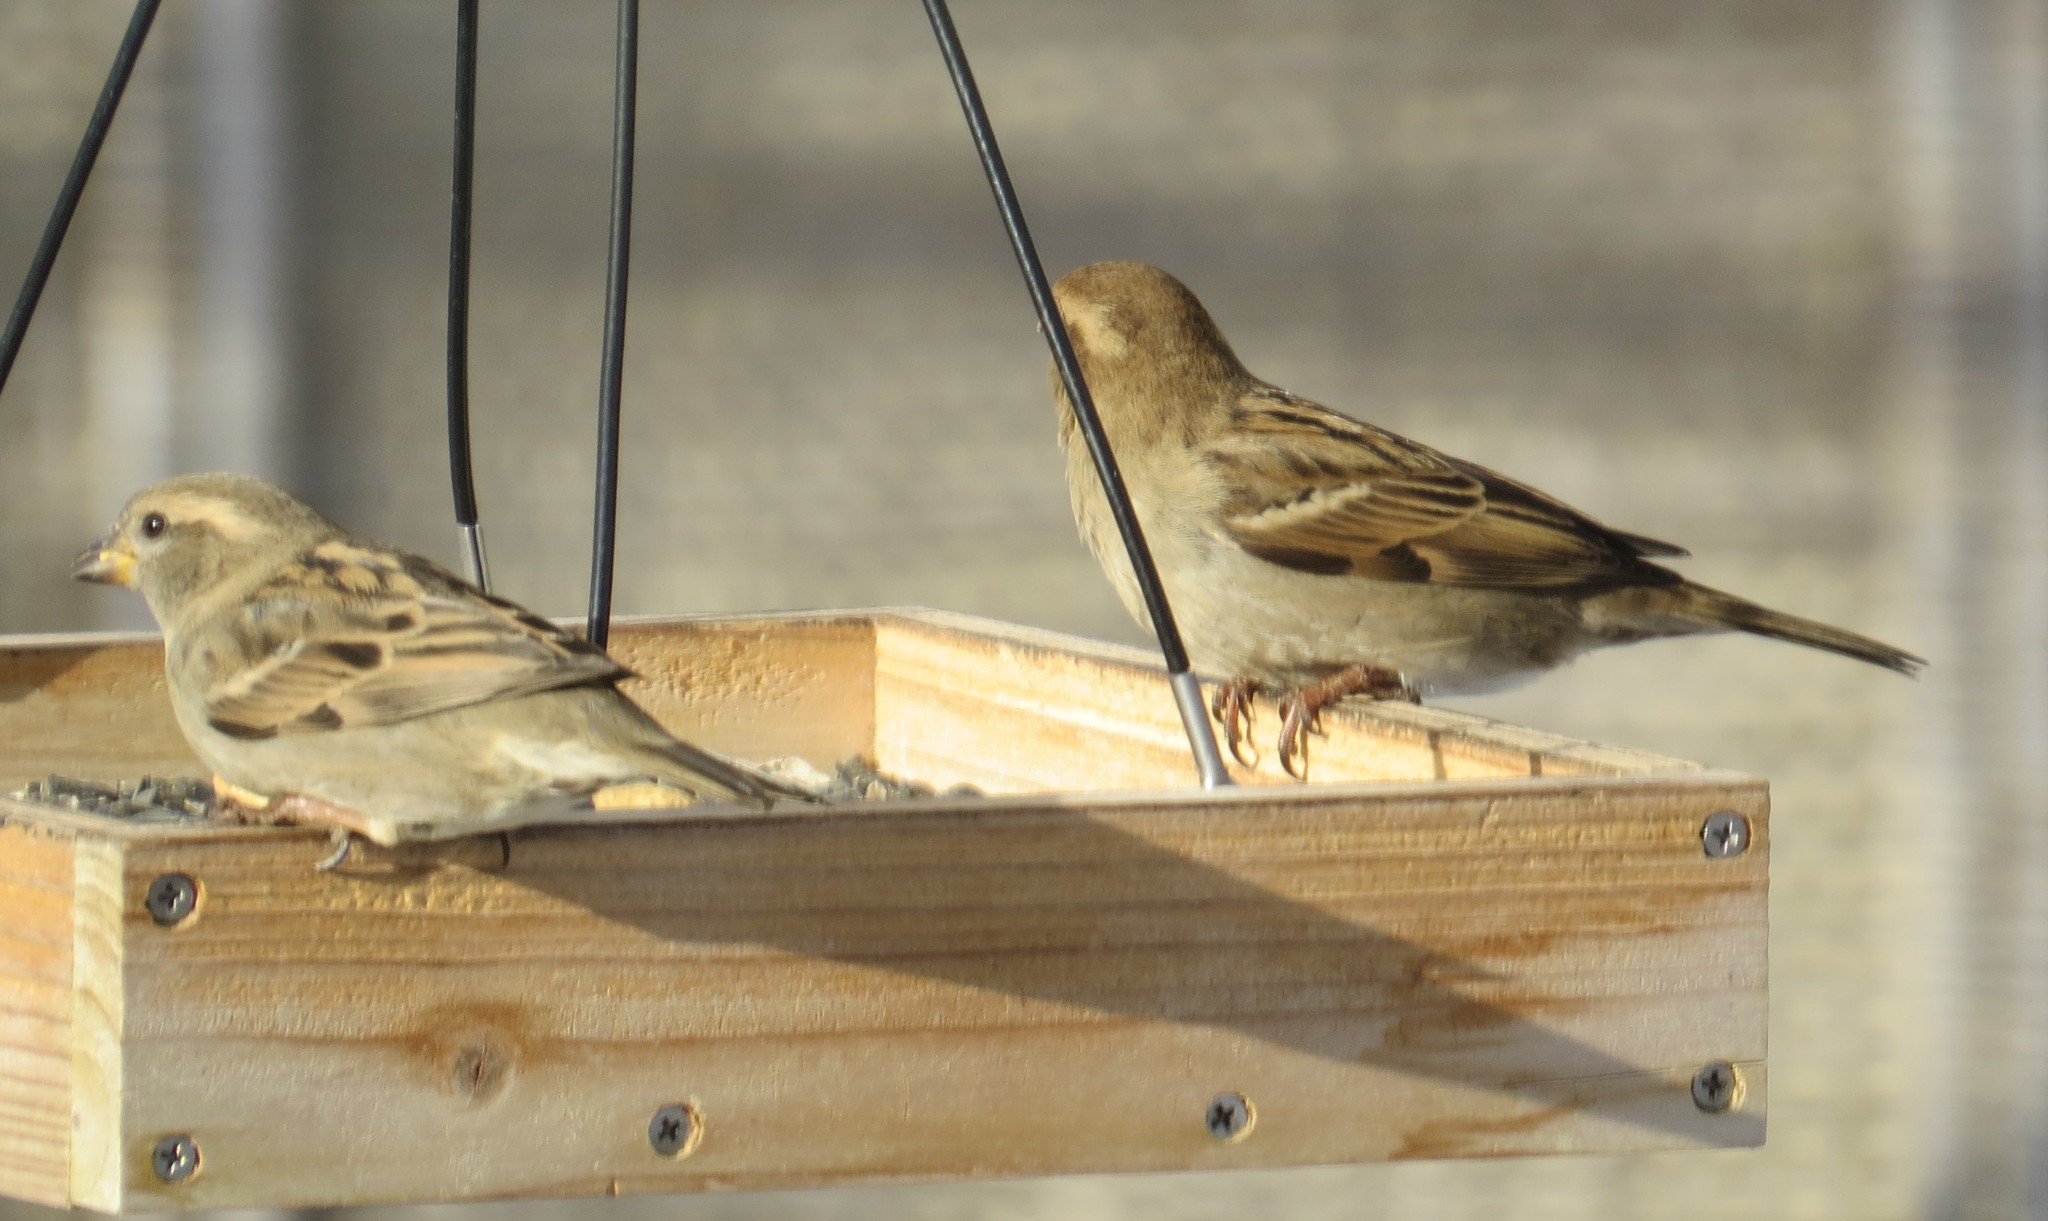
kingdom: Animalia
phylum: Chordata
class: Aves
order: Passeriformes
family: Passeridae
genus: Passer
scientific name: Passer domesticus
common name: House sparrow
